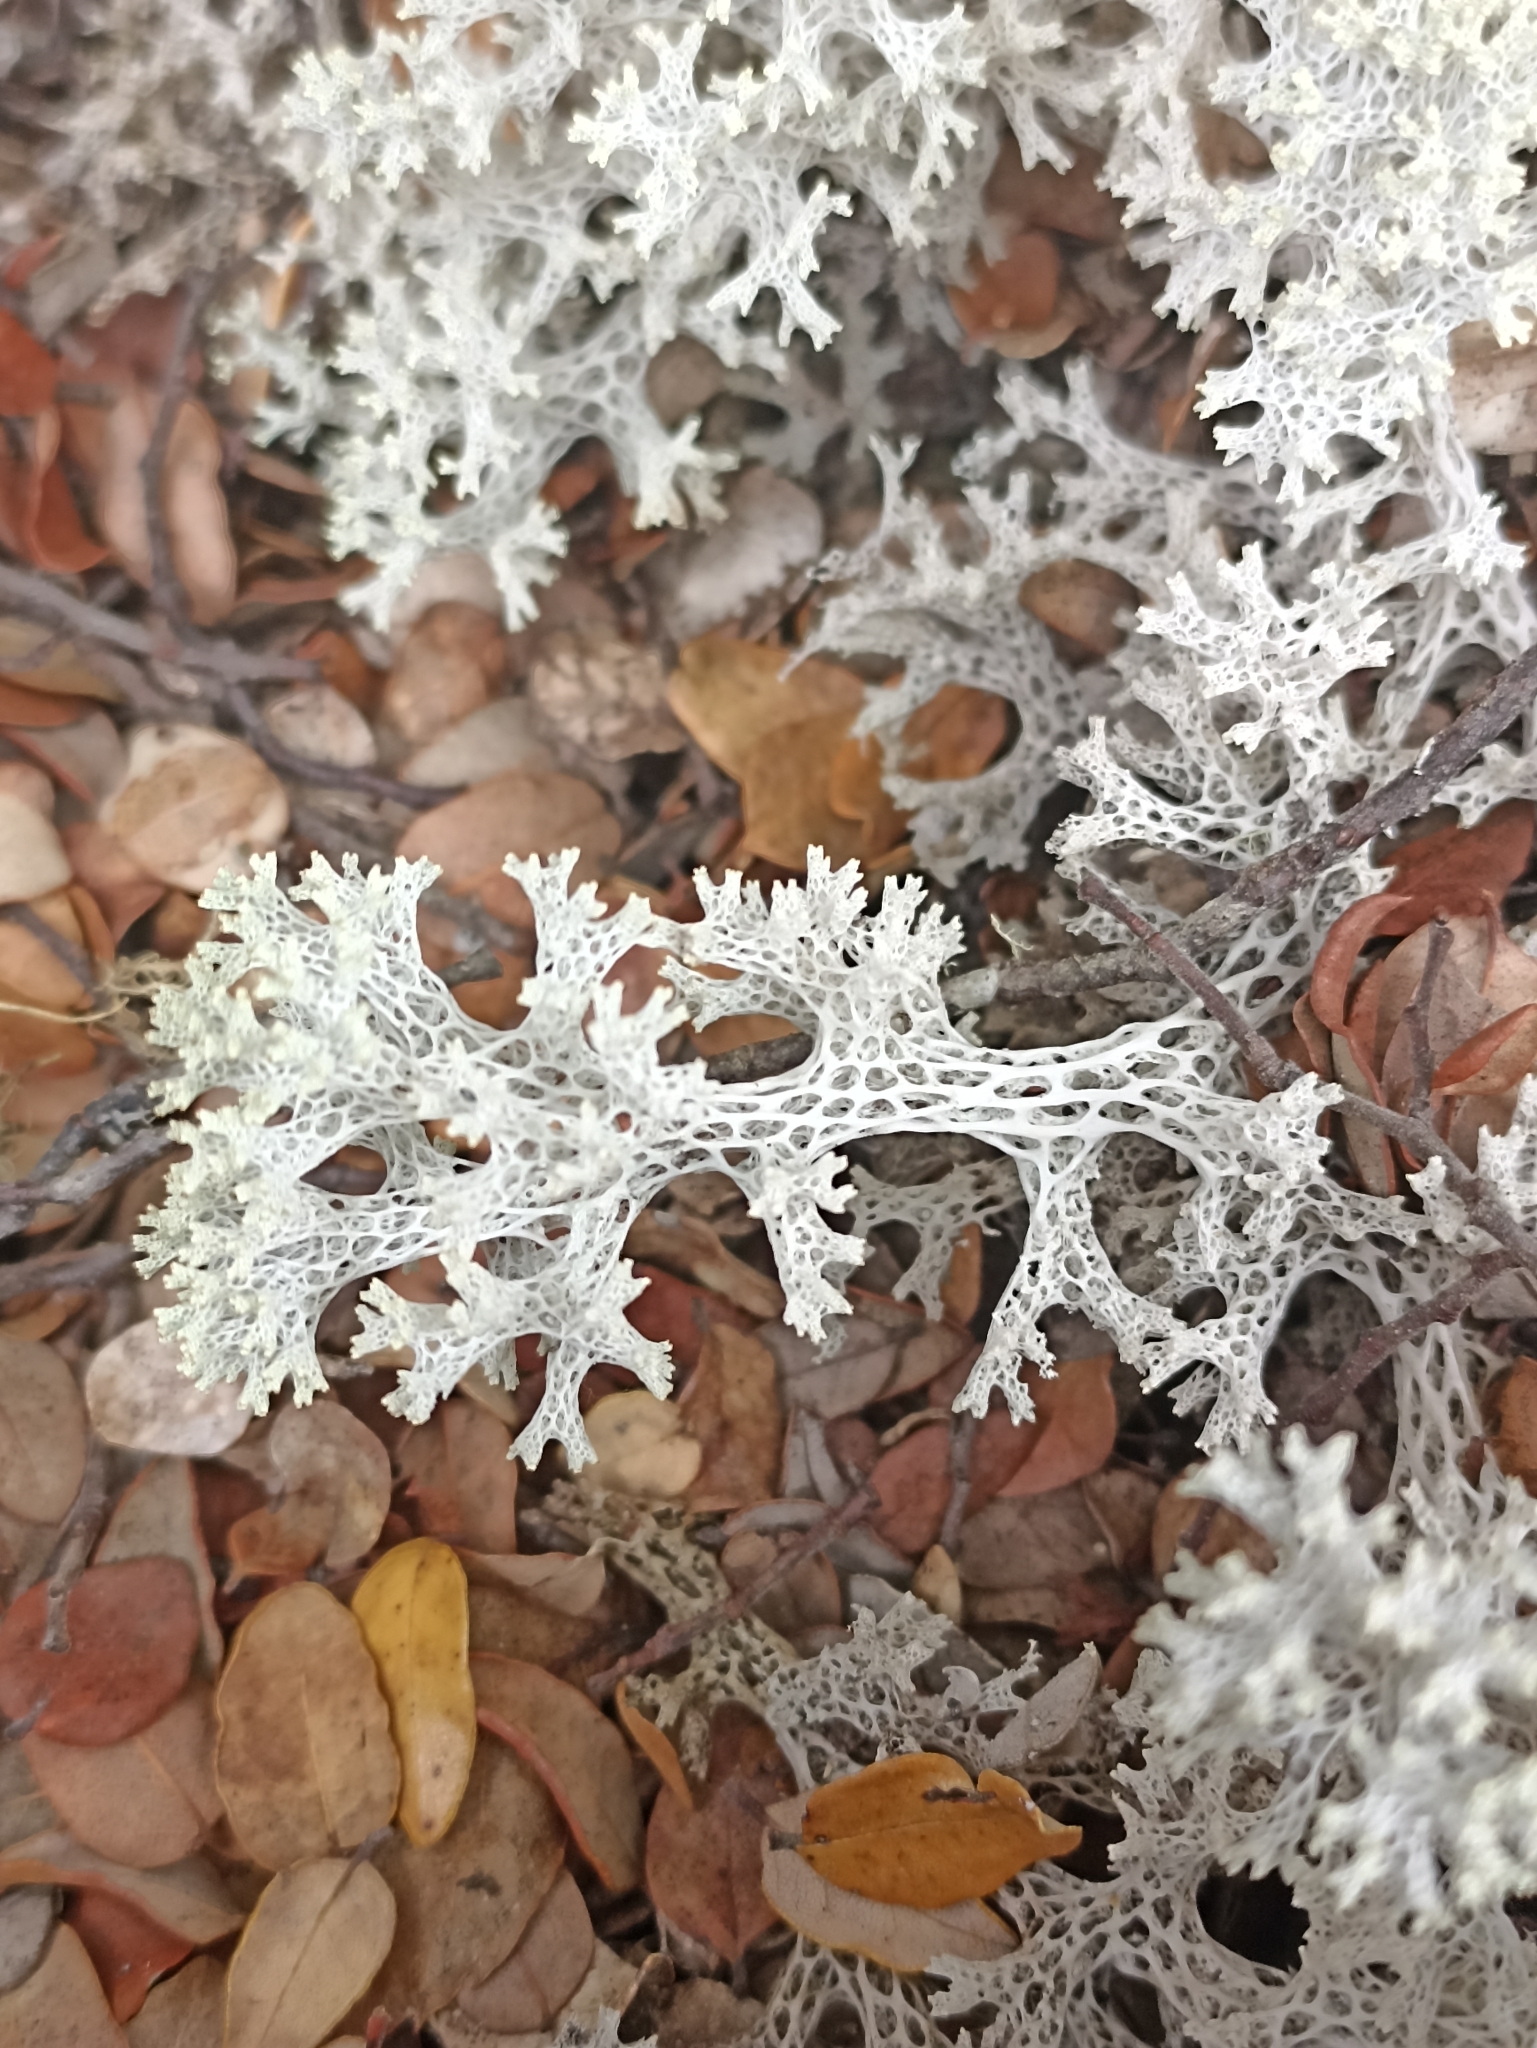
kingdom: Fungi
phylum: Ascomycota
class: Lecanoromycetes
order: Lecanorales
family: Cladoniaceae
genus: Pulchrocladia
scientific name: Pulchrocladia retipora
